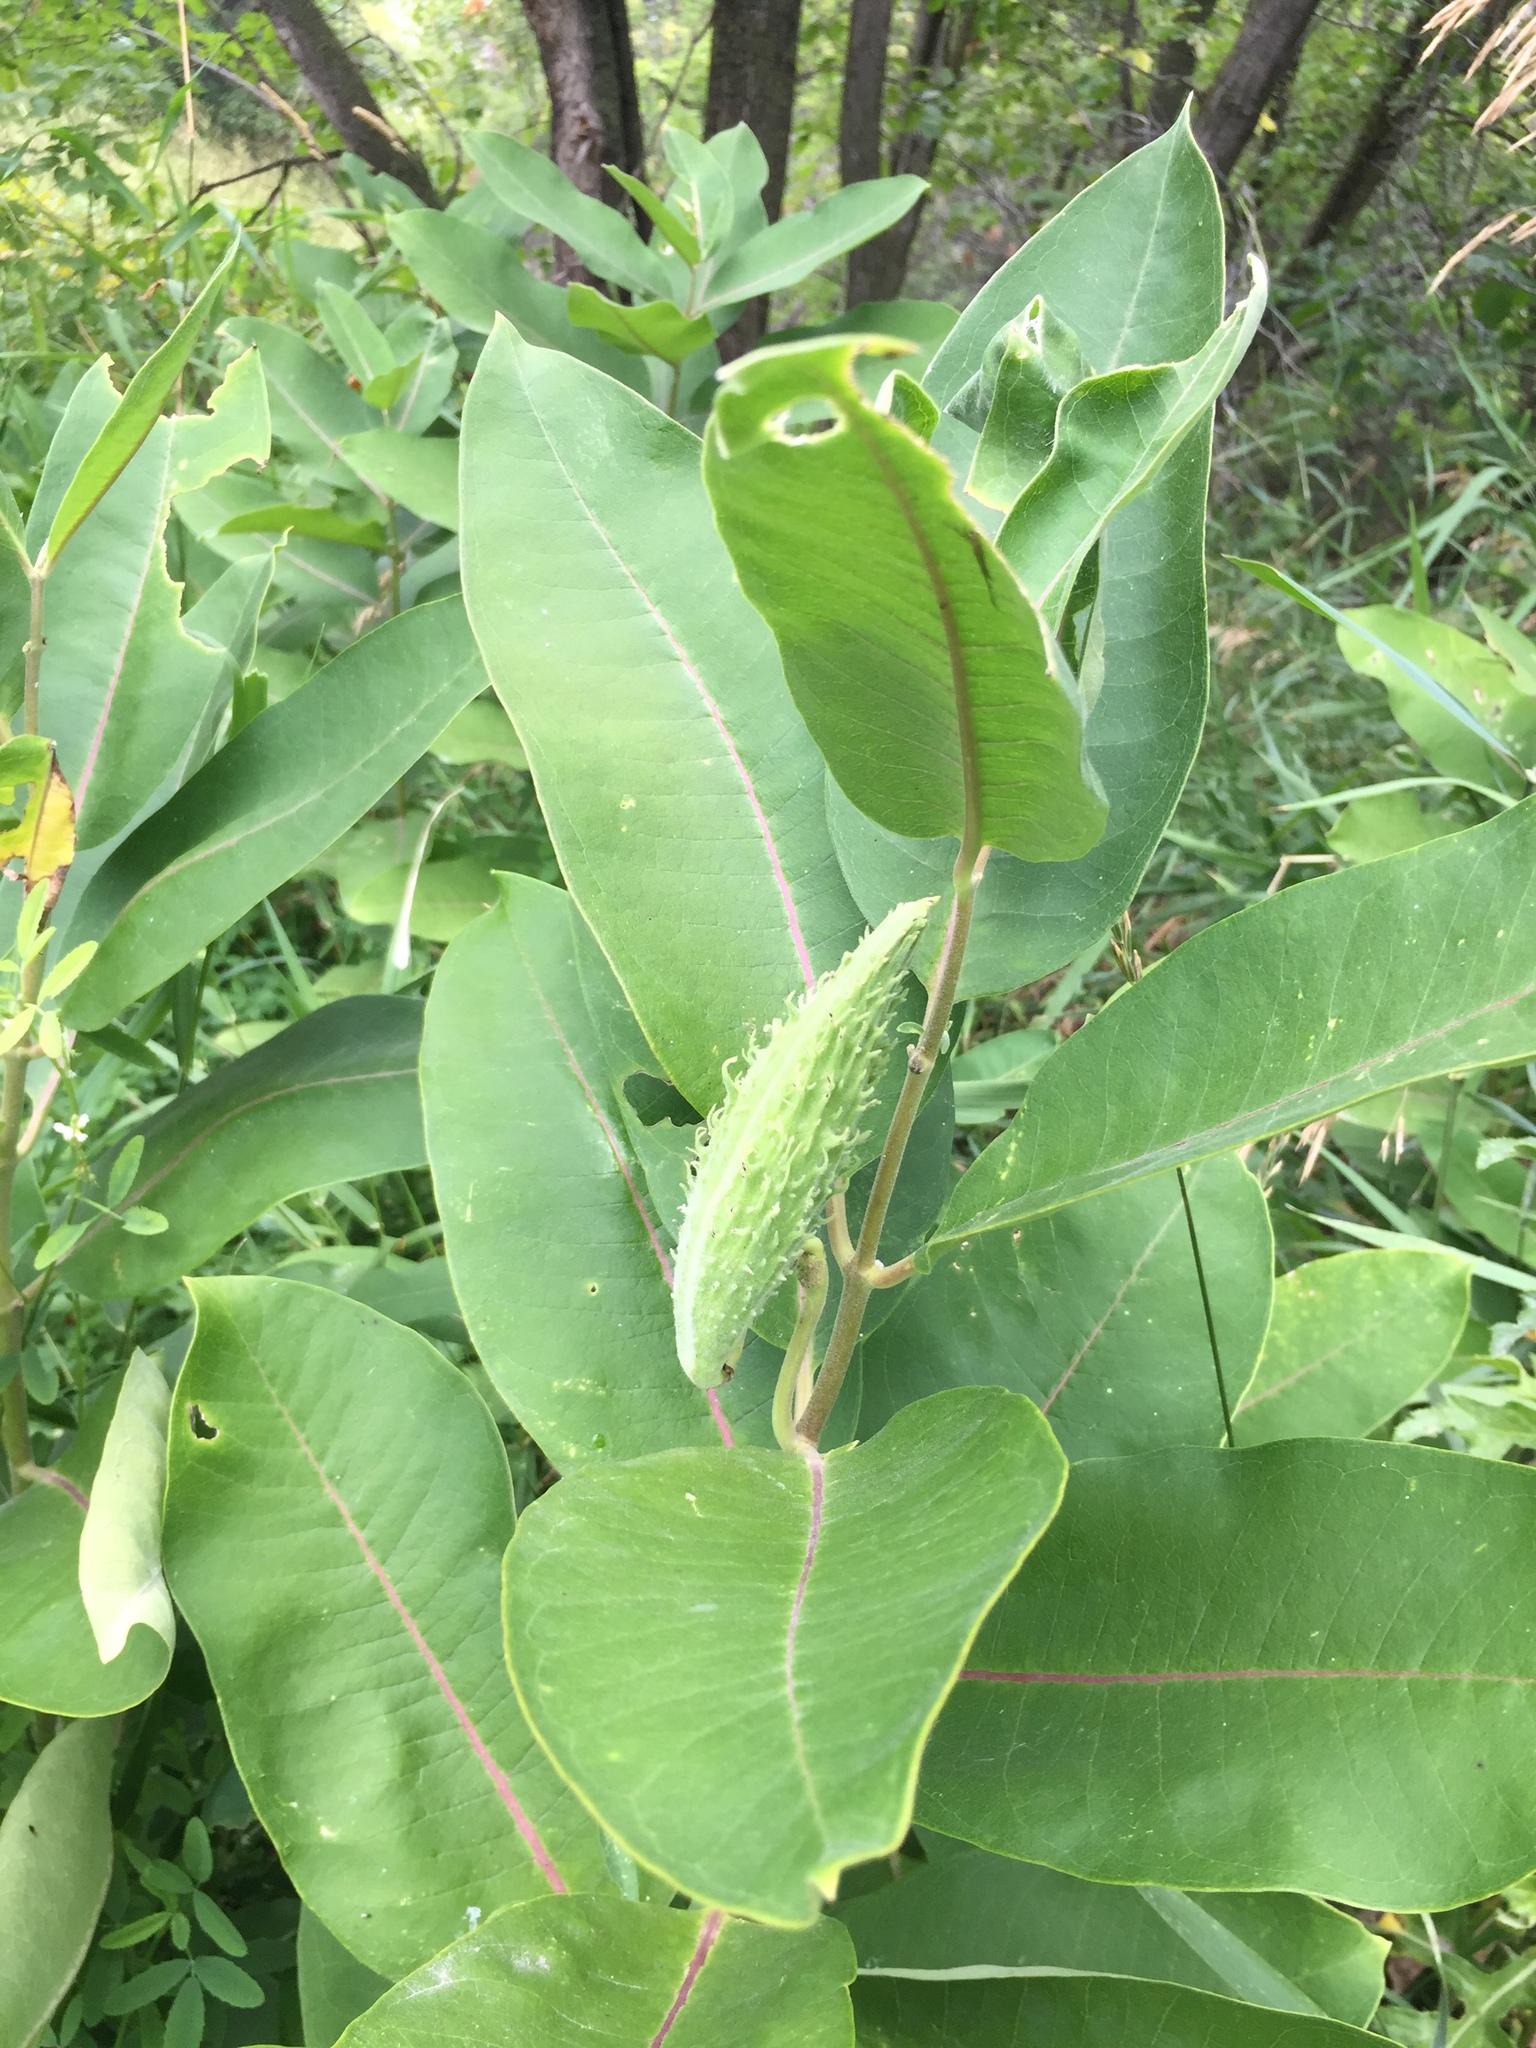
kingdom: Plantae
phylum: Tracheophyta
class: Magnoliopsida
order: Gentianales
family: Apocynaceae
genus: Asclepias
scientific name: Asclepias syriaca
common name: Common milkweed
